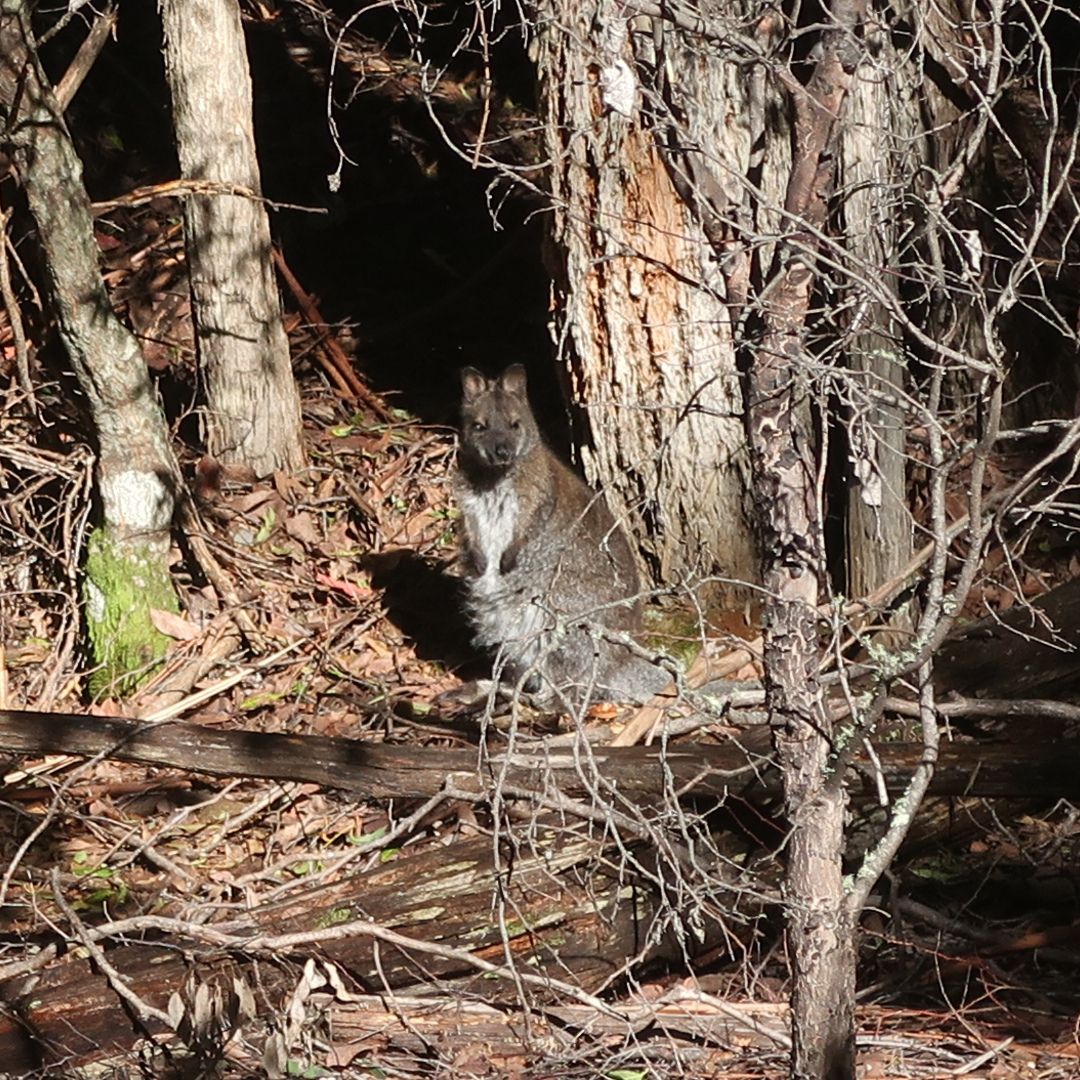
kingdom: Animalia
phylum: Chordata
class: Mammalia
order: Diprotodontia
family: Macropodidae
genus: Notamacropus
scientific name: Notamacropus rufogriseus
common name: Red-necked wallaby
